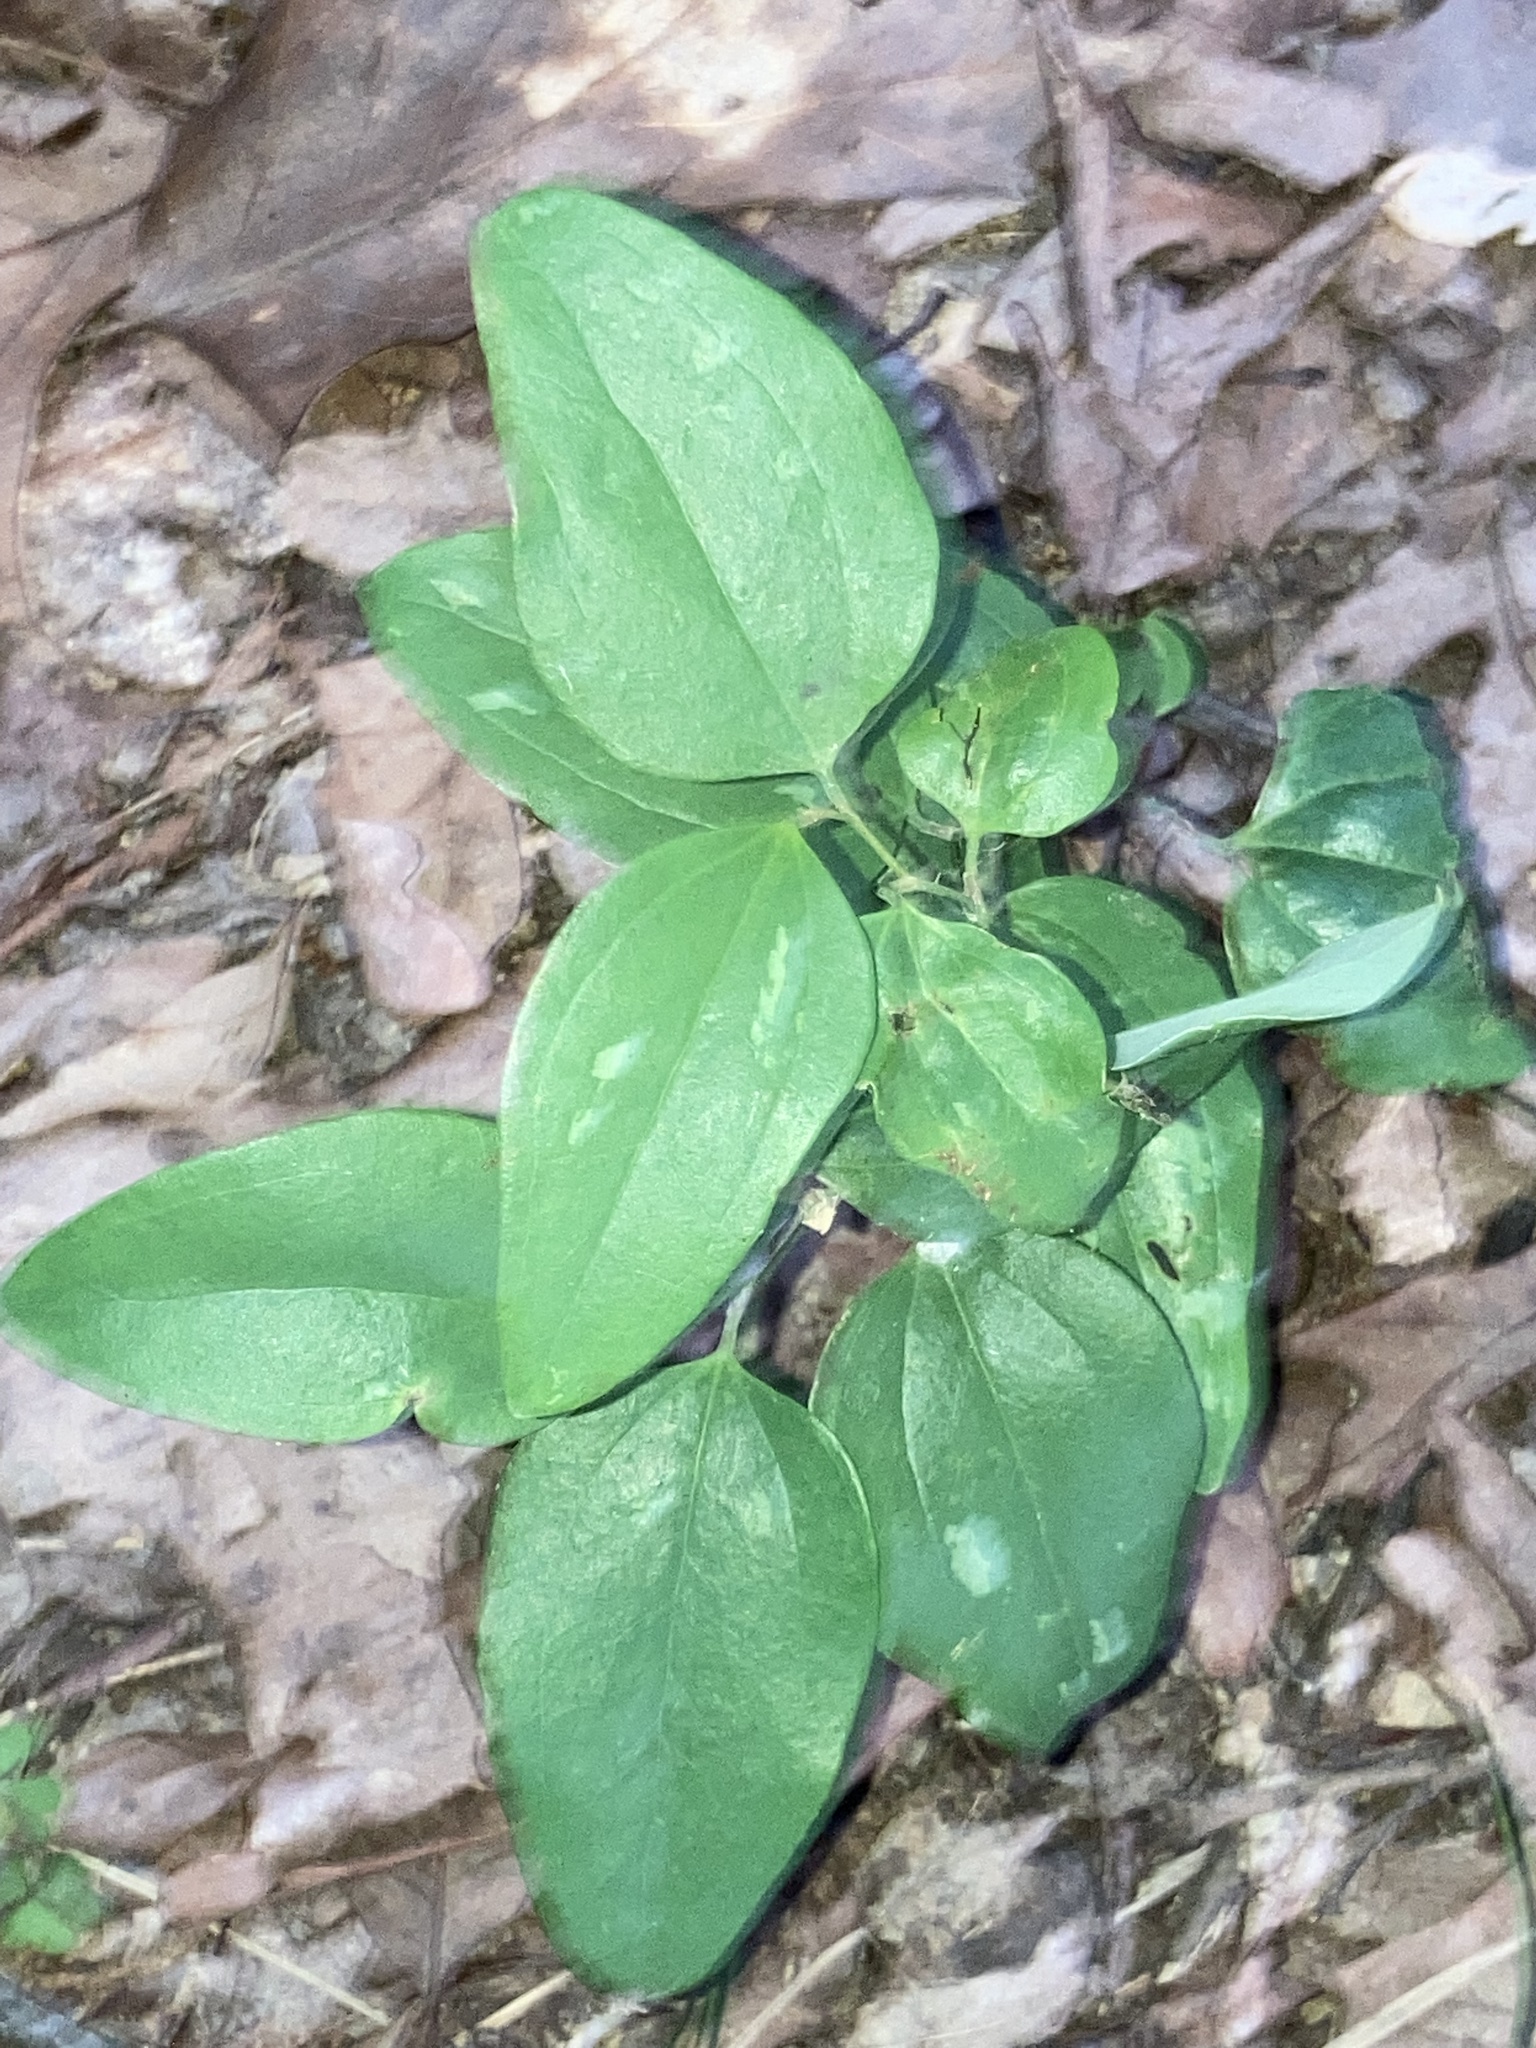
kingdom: Plantae
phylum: Tracheophyta
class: Liliopsida
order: Liliales
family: Smilacaceae
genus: Smilax
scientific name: Smilax glauca
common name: Cat greenbrier
